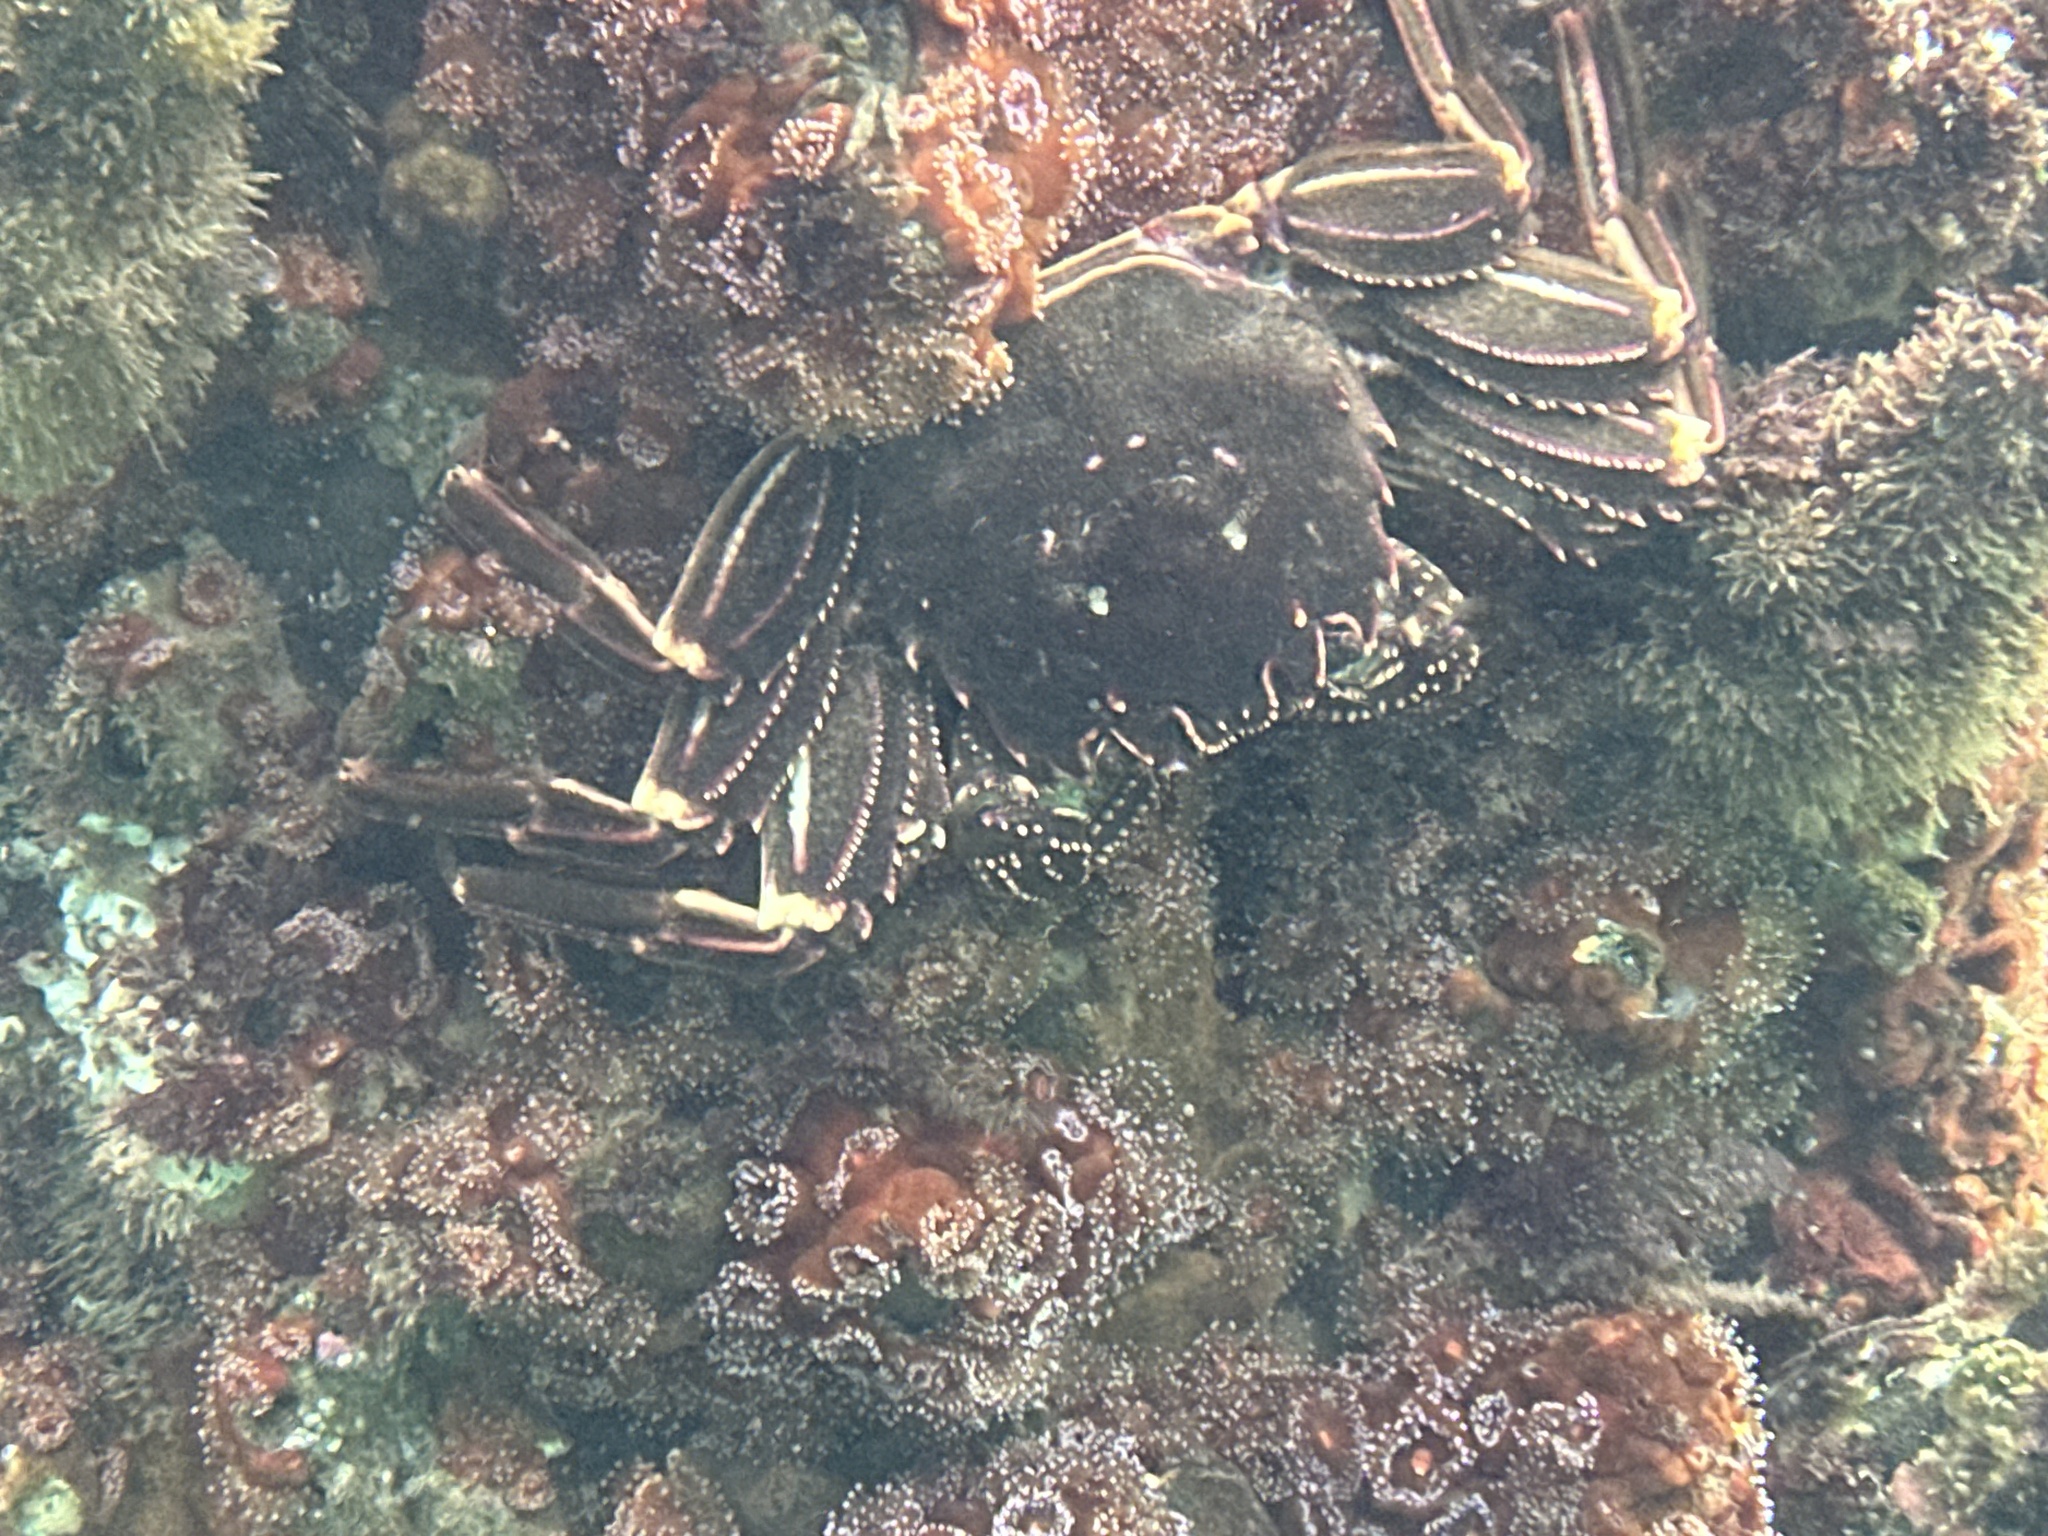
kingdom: Animalia
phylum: Arthropoda
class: Malacostraca
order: Decapoda
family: Plagusiidae
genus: Guinusia
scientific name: Guinusia chabrus
